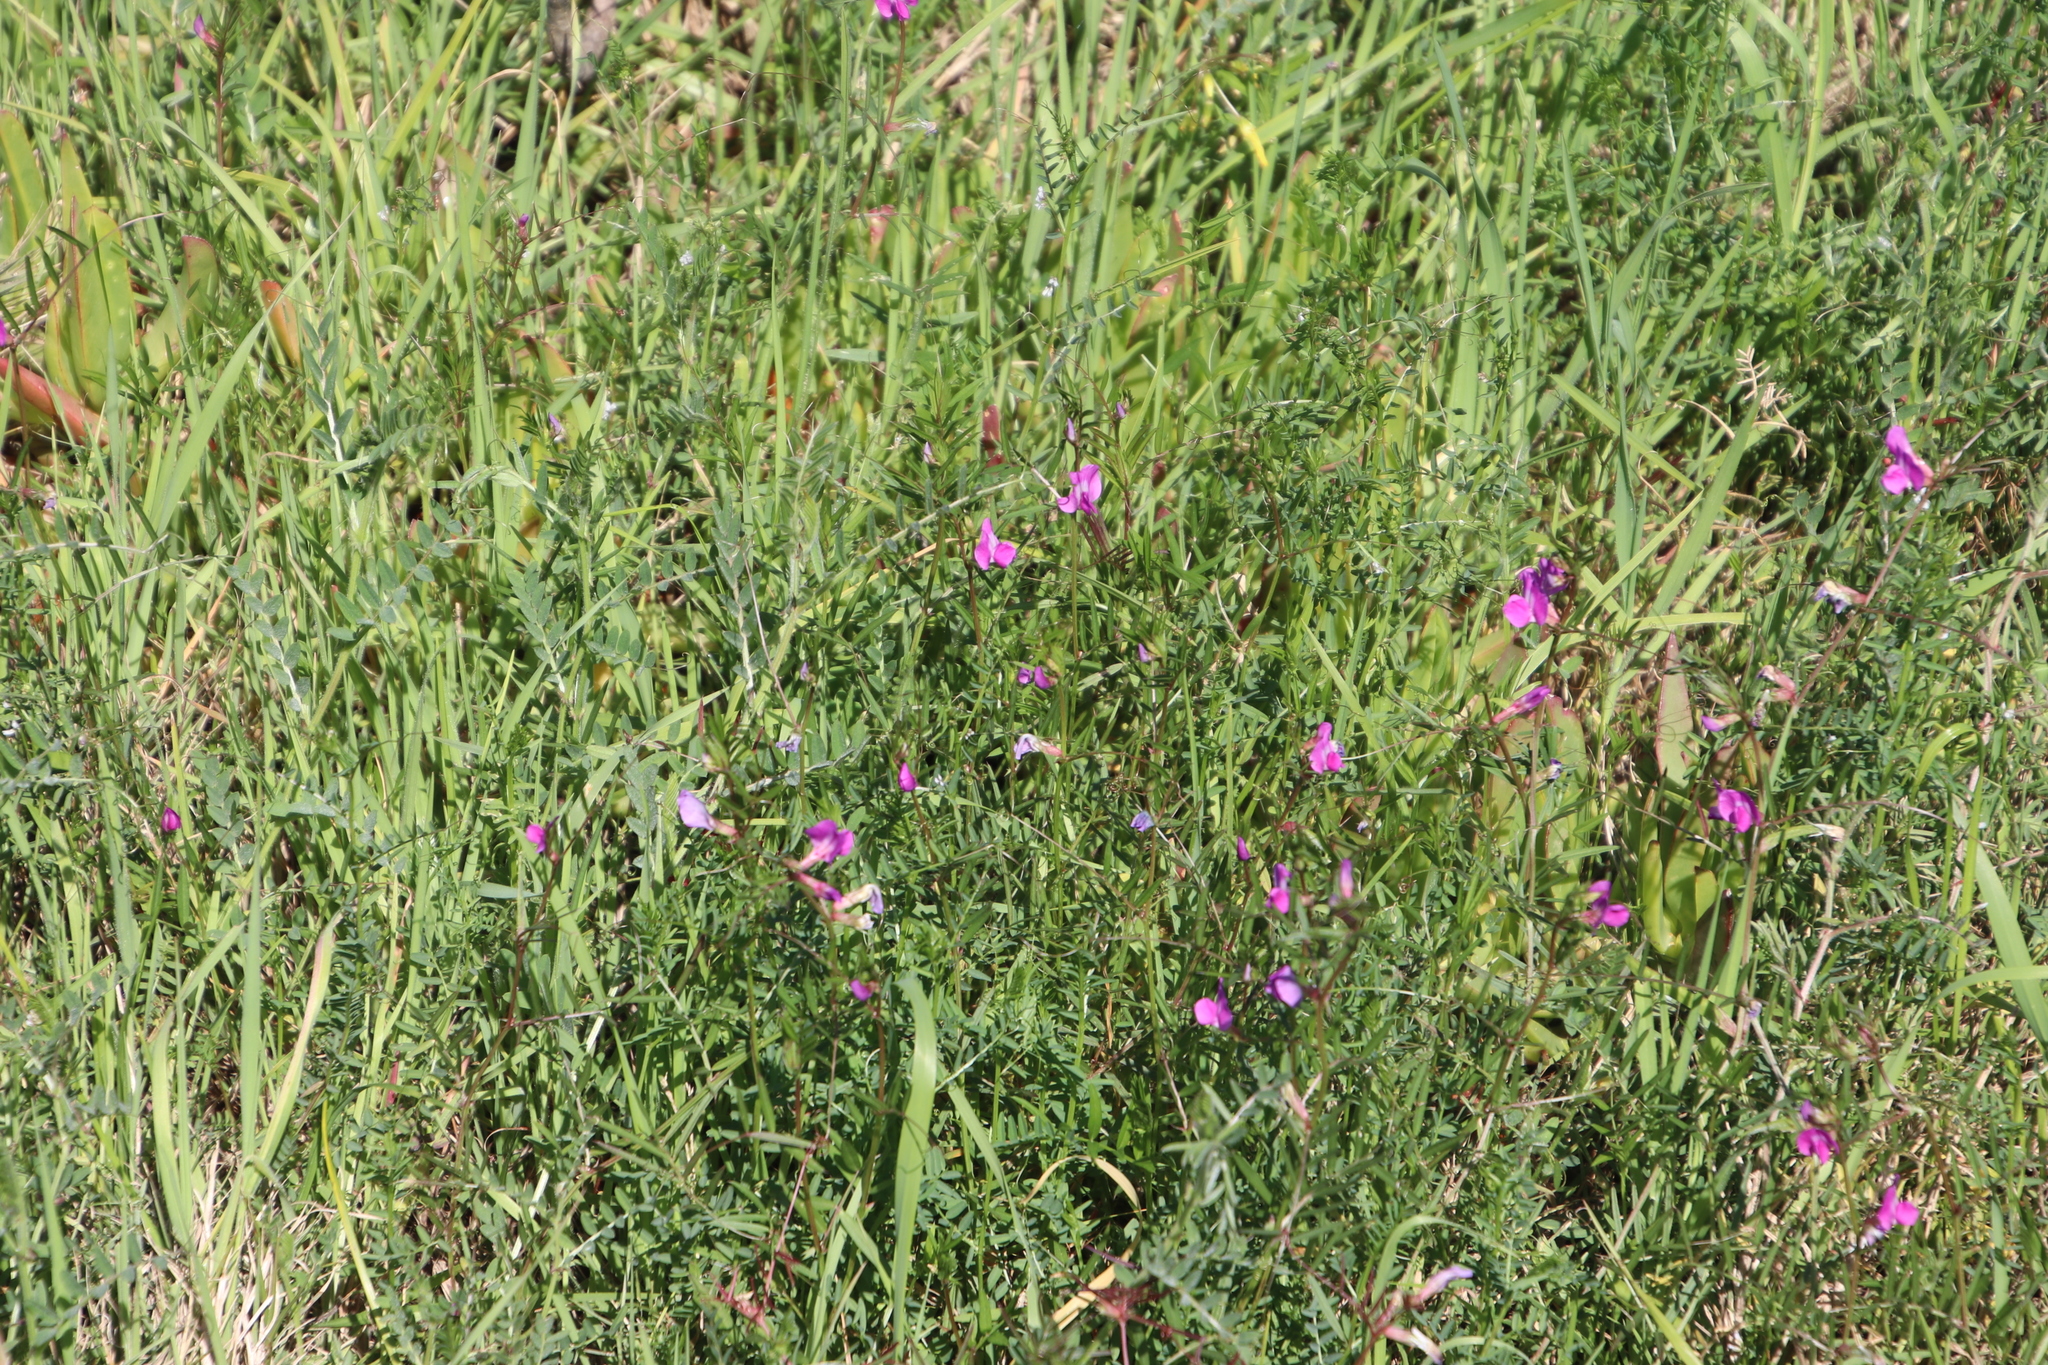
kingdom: Plantae
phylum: Tracheophyta
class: Magnoliopsida
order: Fabales
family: Fabaceae
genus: Vicia
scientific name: Vicia sativa
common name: Garden vetch
